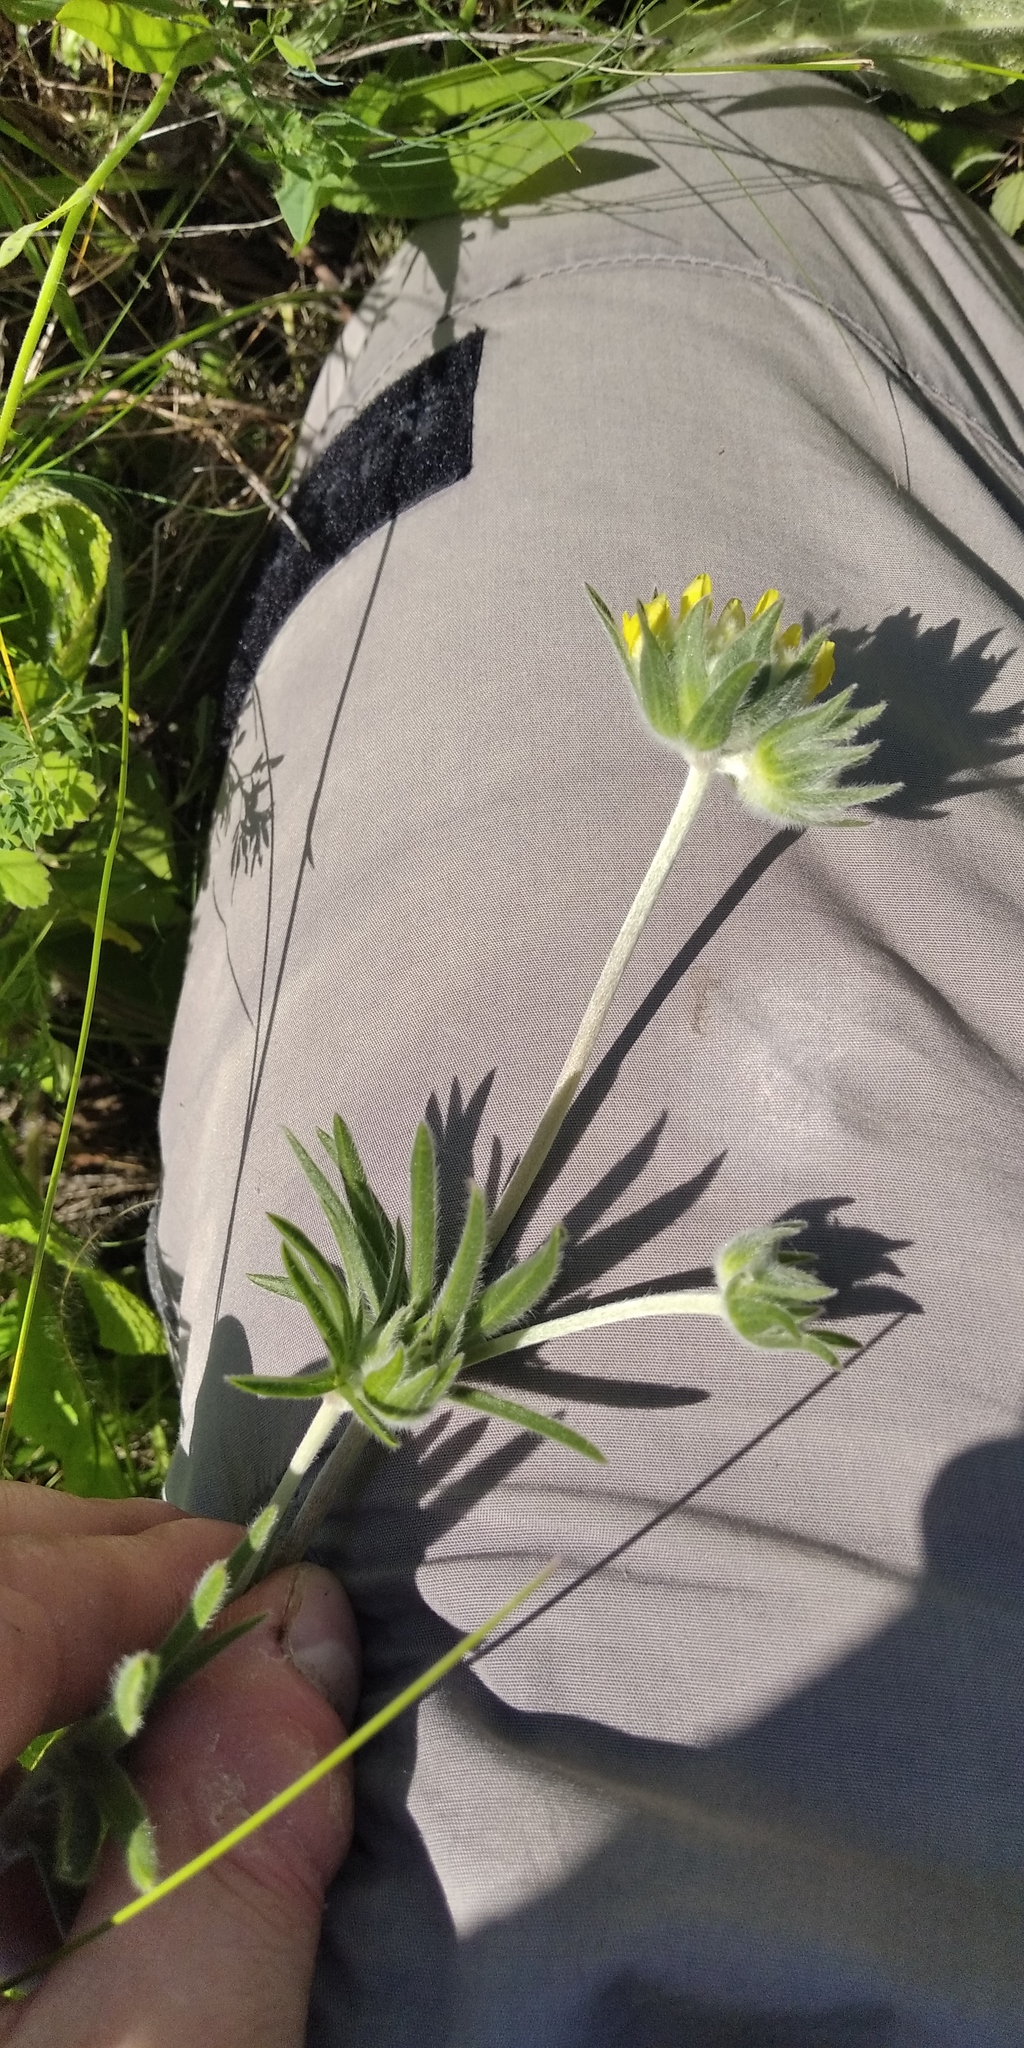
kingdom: Plantae
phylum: Tracheophyta
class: Magnoliopsida
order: Fabales
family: Fabaceae
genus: Anthyllis
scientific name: Anthyllis vulneraria
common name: Kidney vetch
